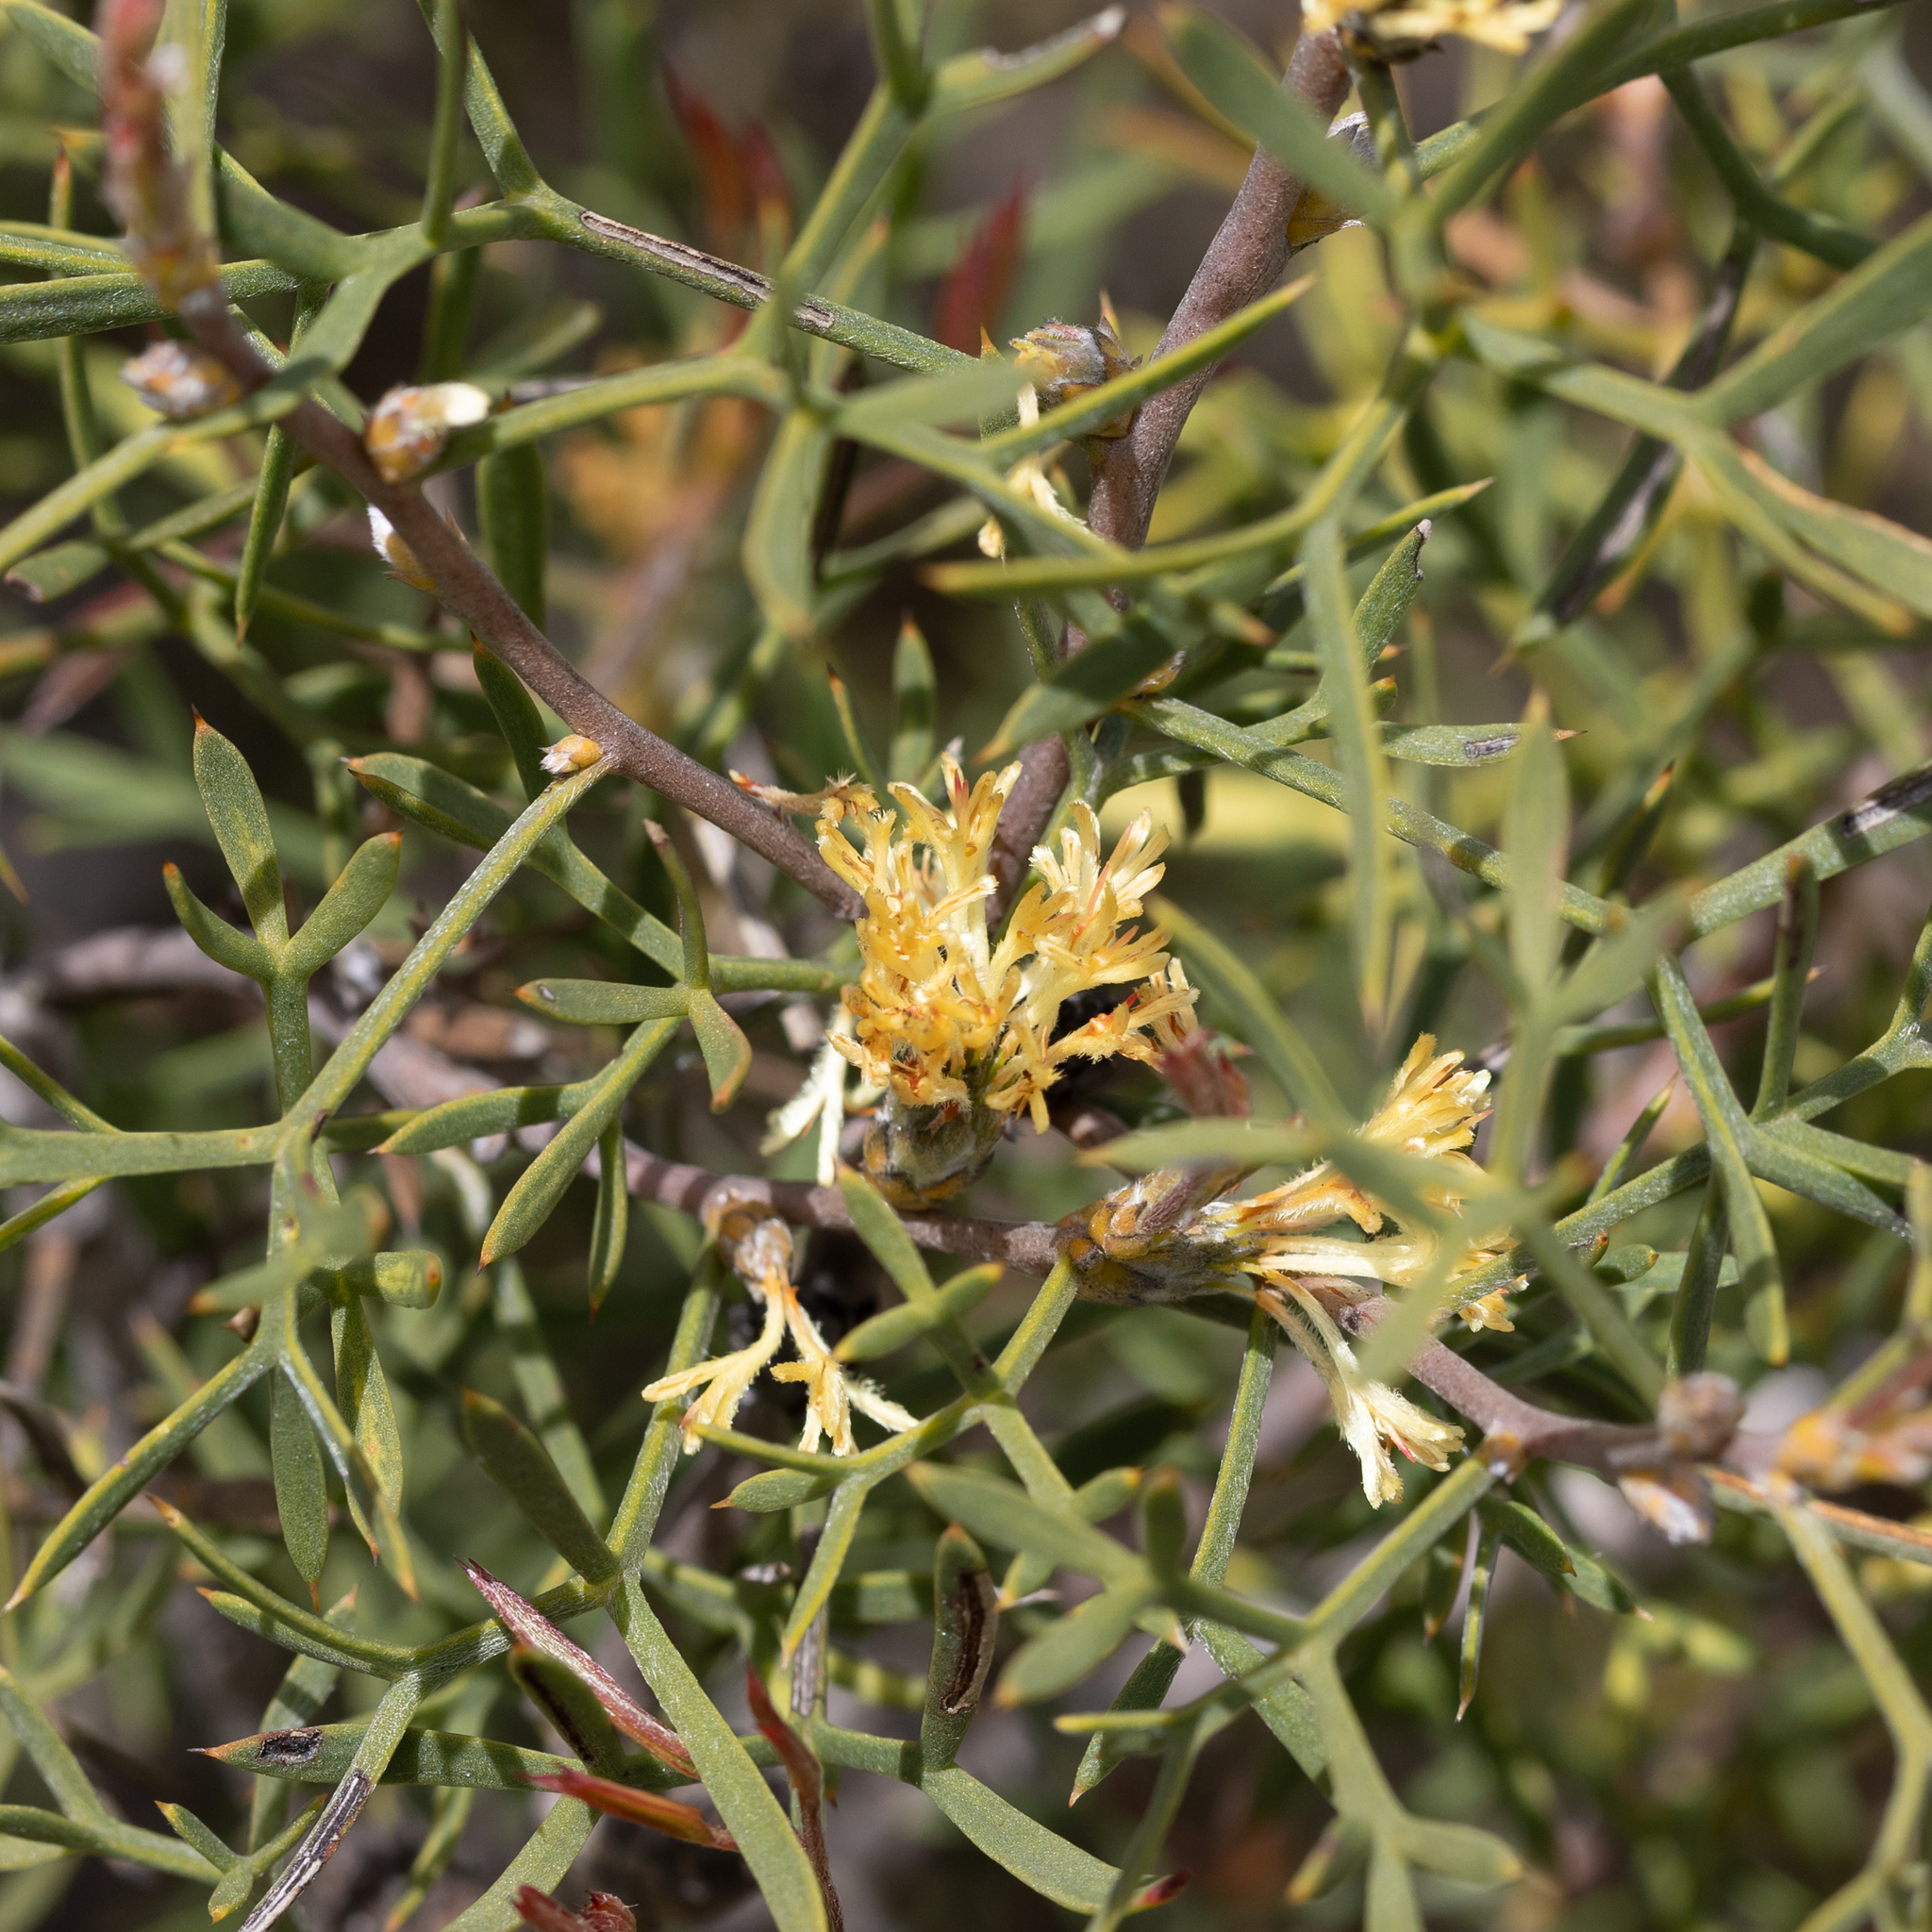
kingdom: Plantae
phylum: Tracheophyta
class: Magnoliopsida
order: Proteales
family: Proteaceae
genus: Petrophile
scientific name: Petrophile squamata
